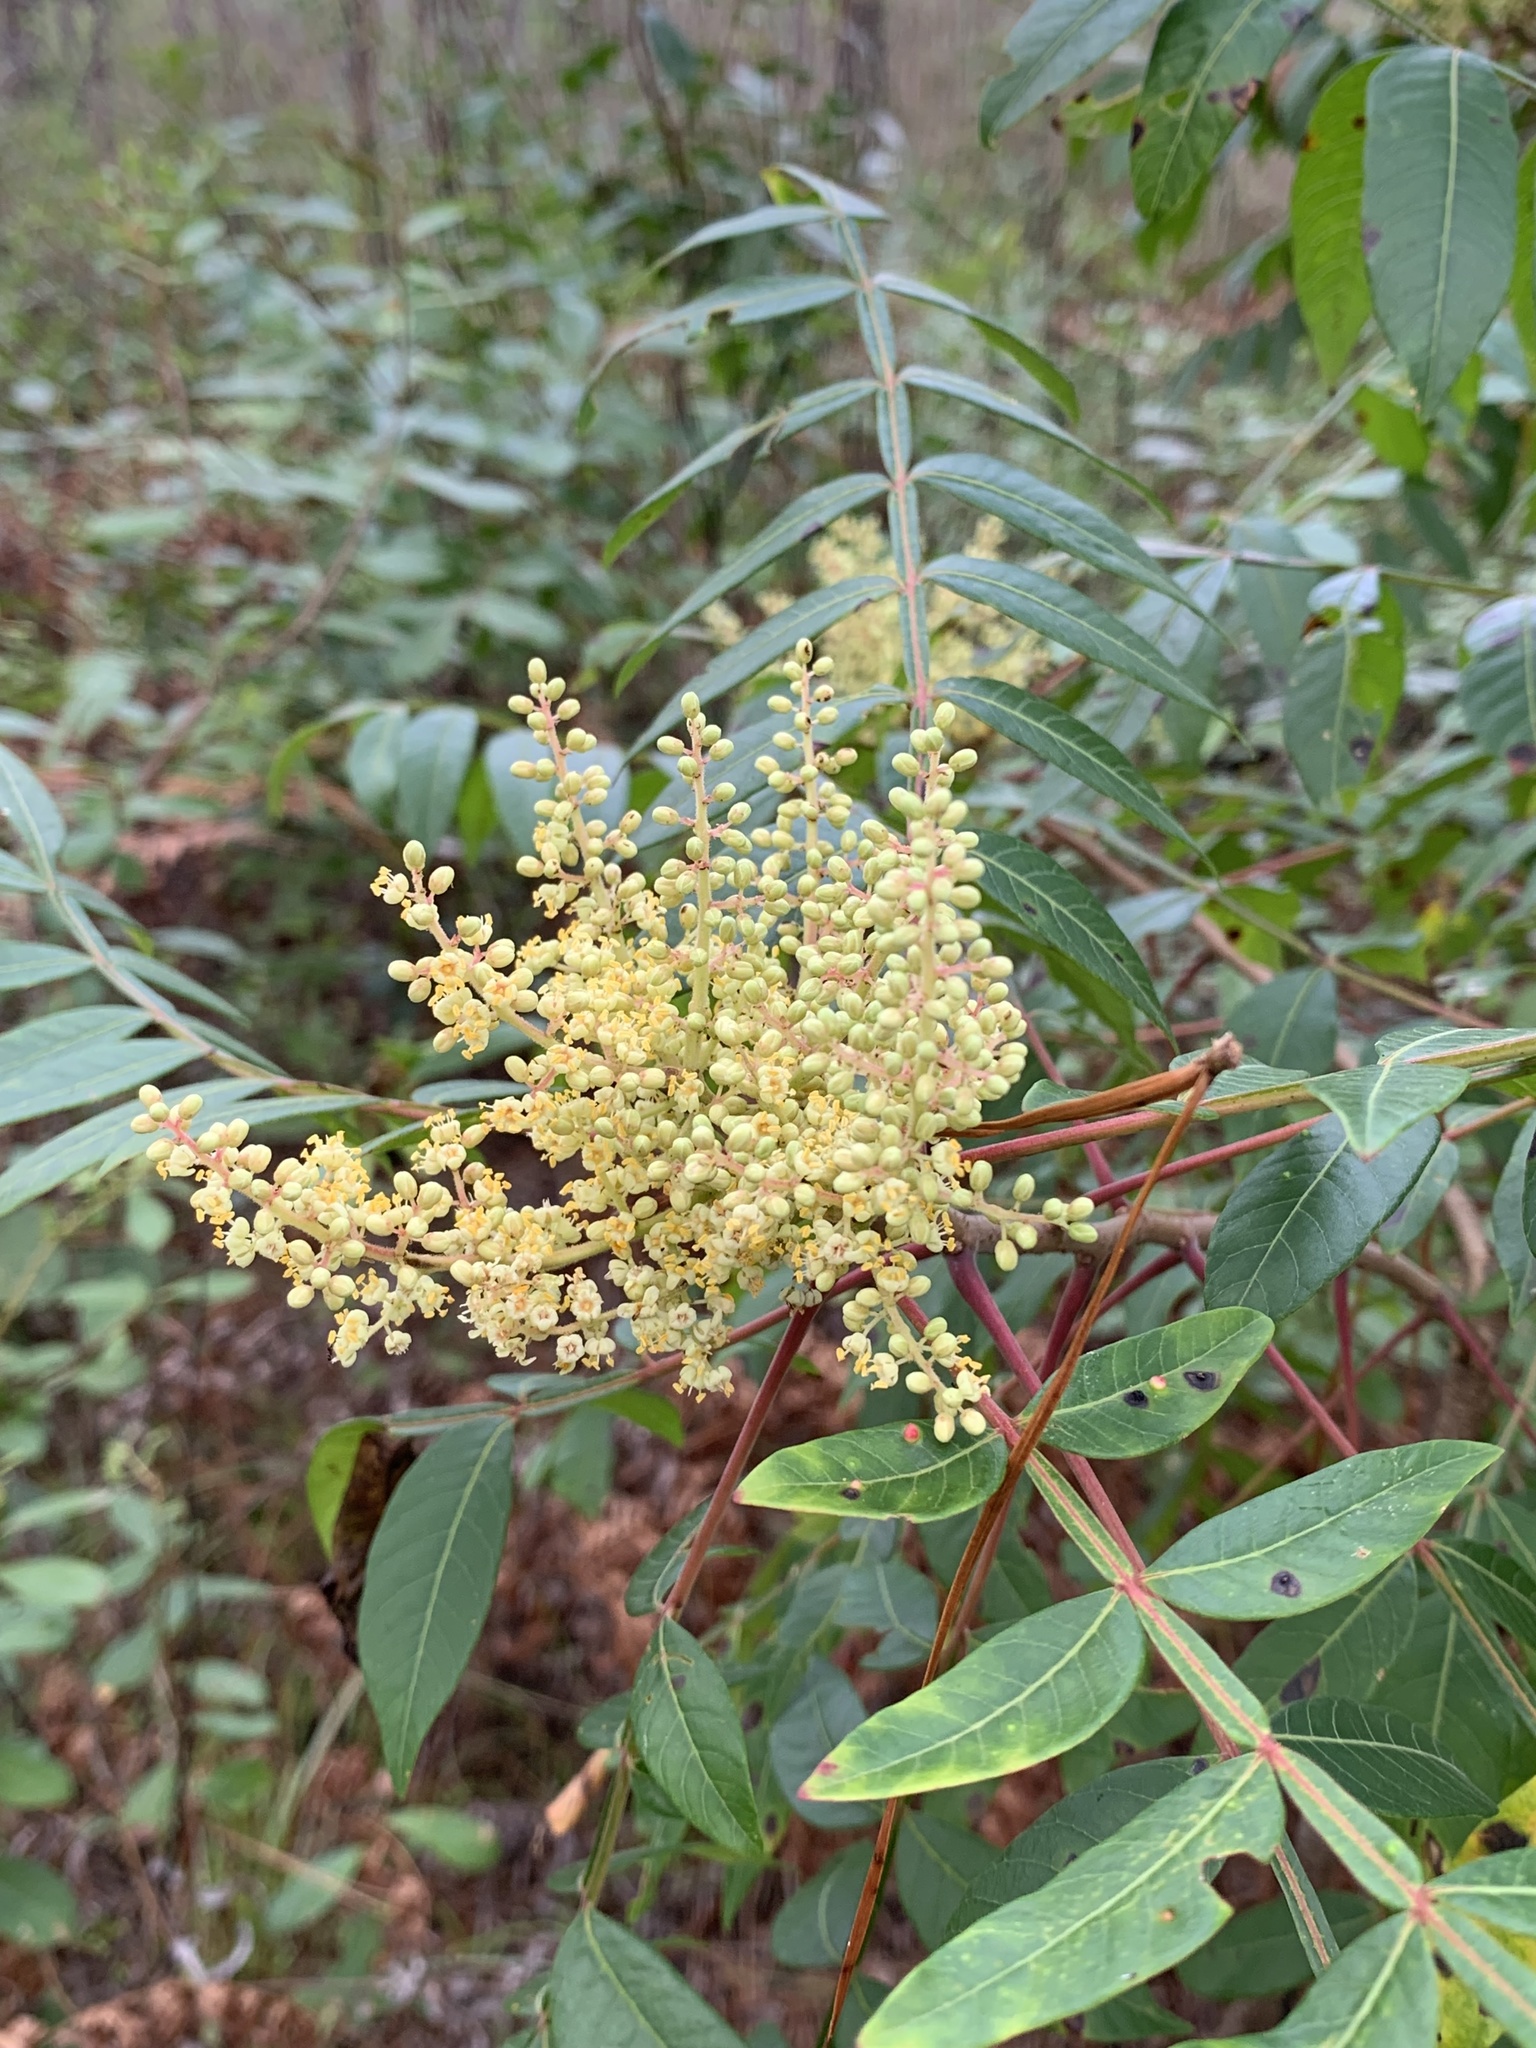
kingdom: Plantae
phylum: Tracheophyta
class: Magnoliopsida
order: Sapindales
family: Anacardiaceae
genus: Rhus
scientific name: Rhus copallina
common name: Shining sumac
